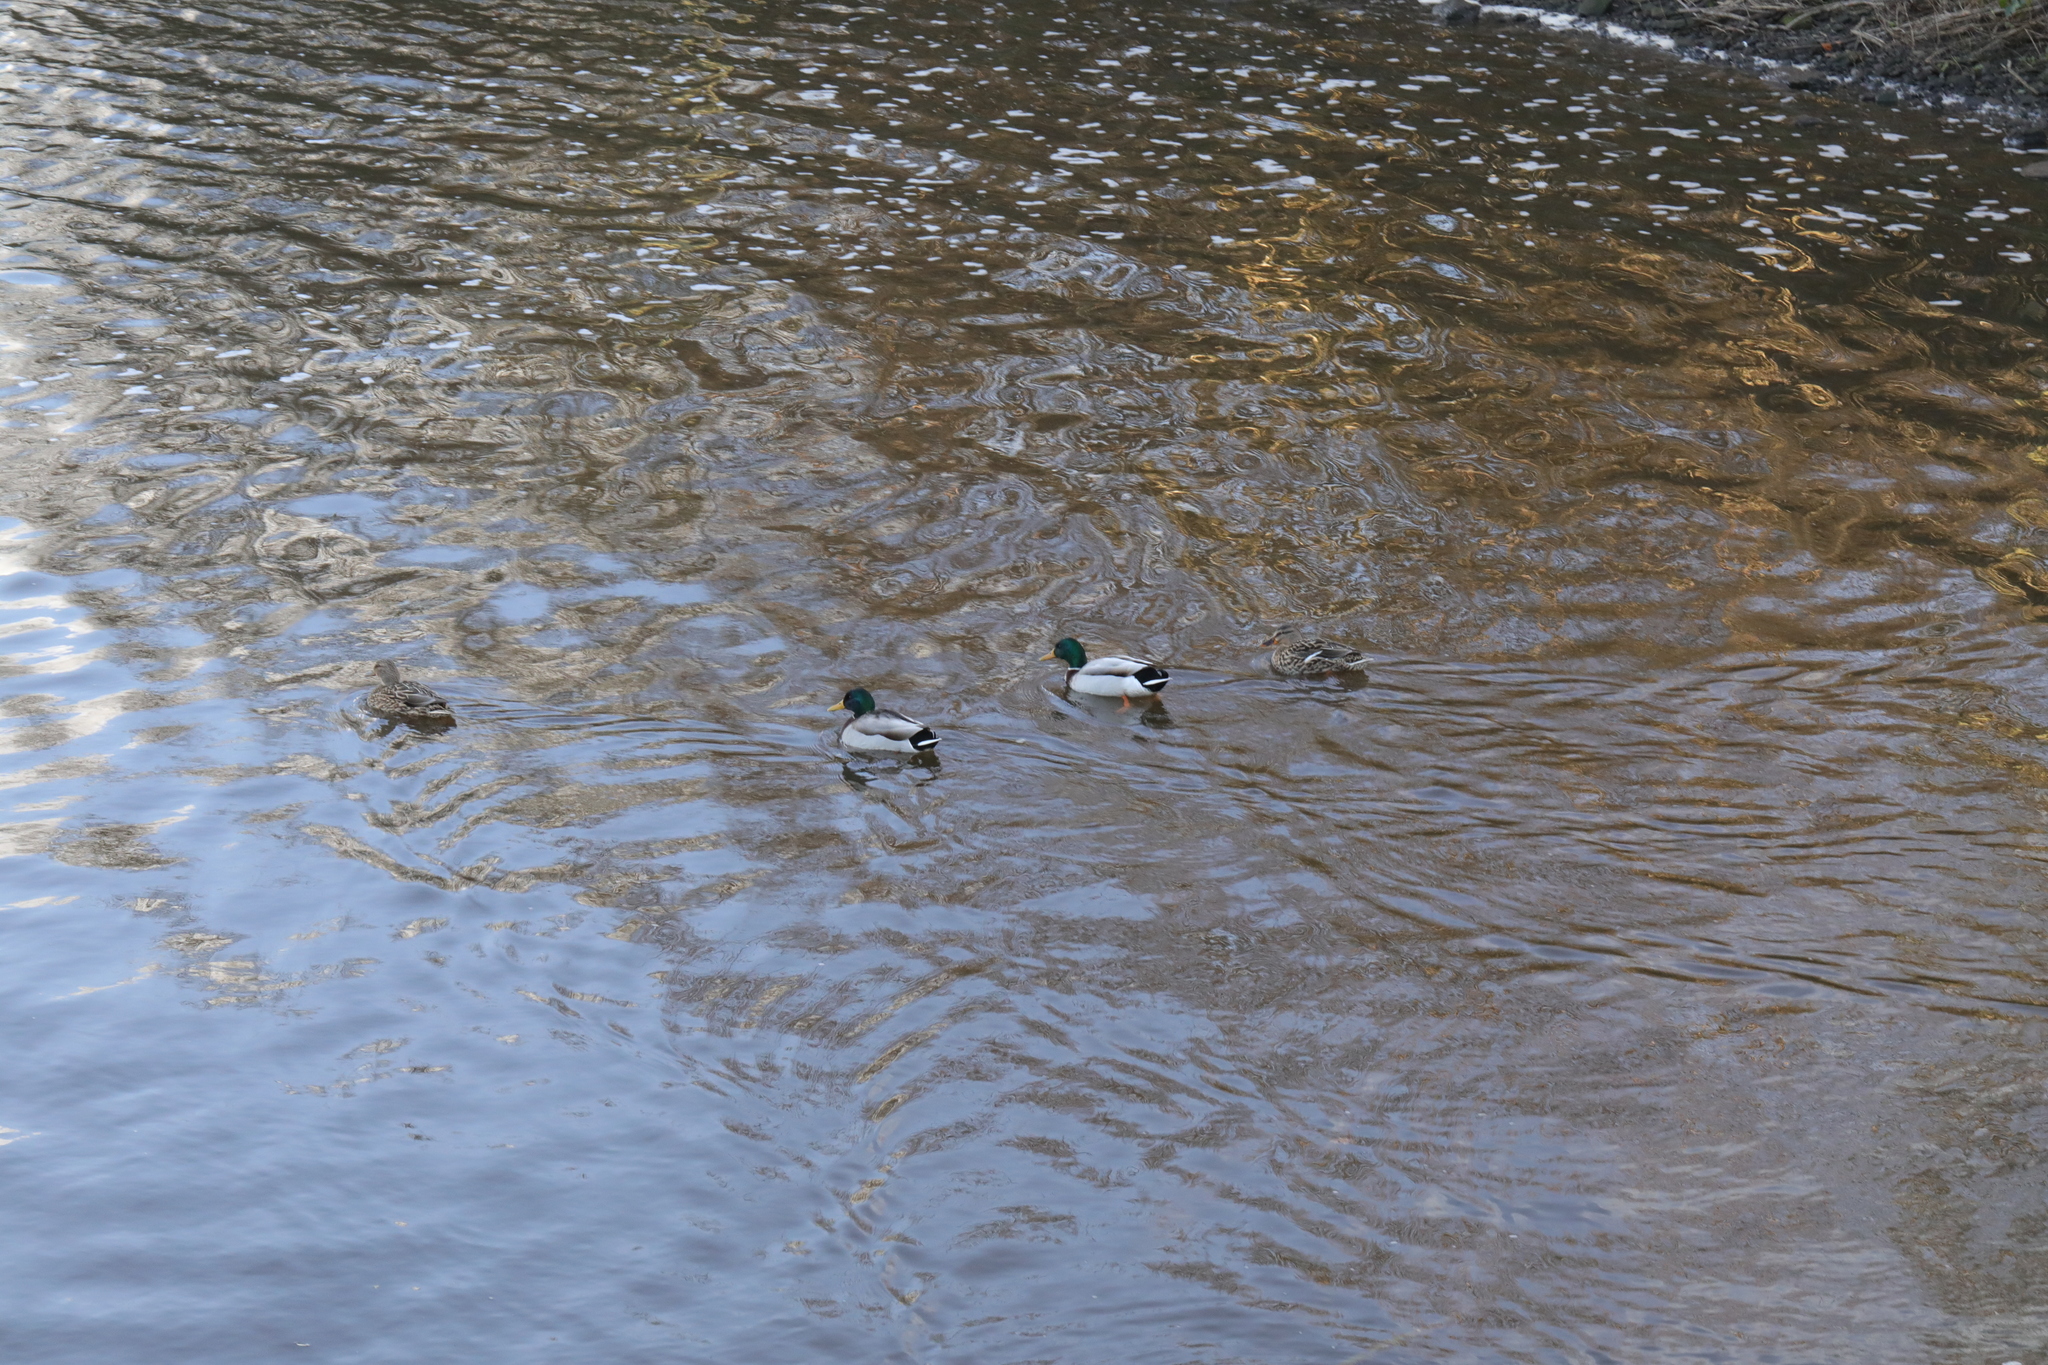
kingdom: Animalia
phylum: Chordata
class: Aves
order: Anseriformes
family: Anatidae
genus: Anas
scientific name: Anas platyrhynchos
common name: Mallard
